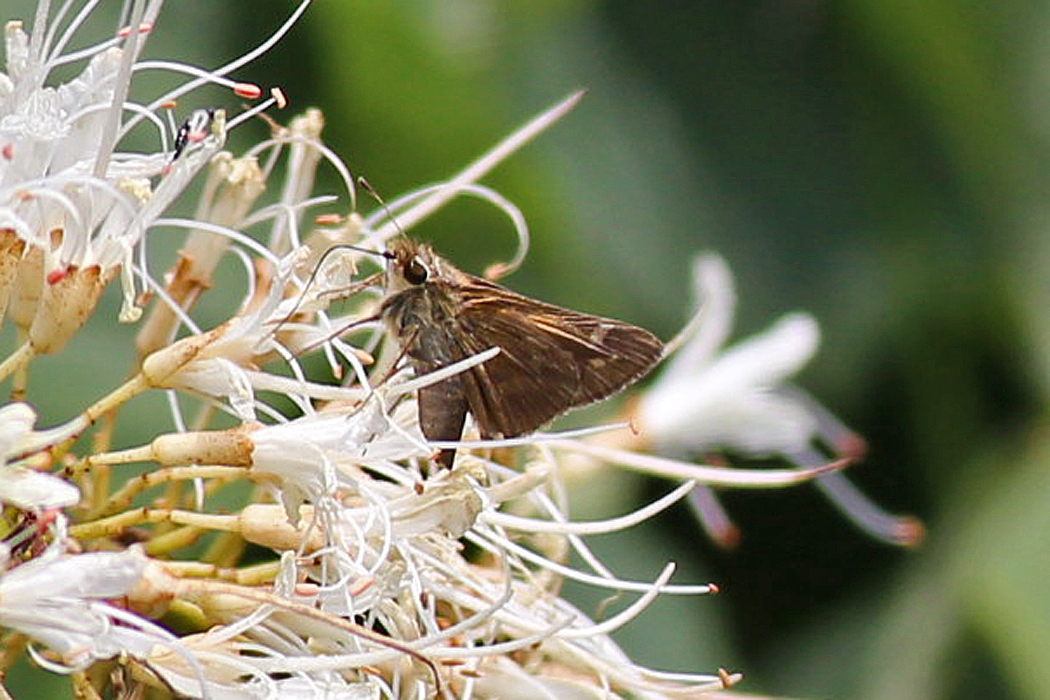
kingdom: Animalia
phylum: Arthropoda
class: Insecta
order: Lepidoptera
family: Hesperiidae
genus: Atalopedes
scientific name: Atalopedes
